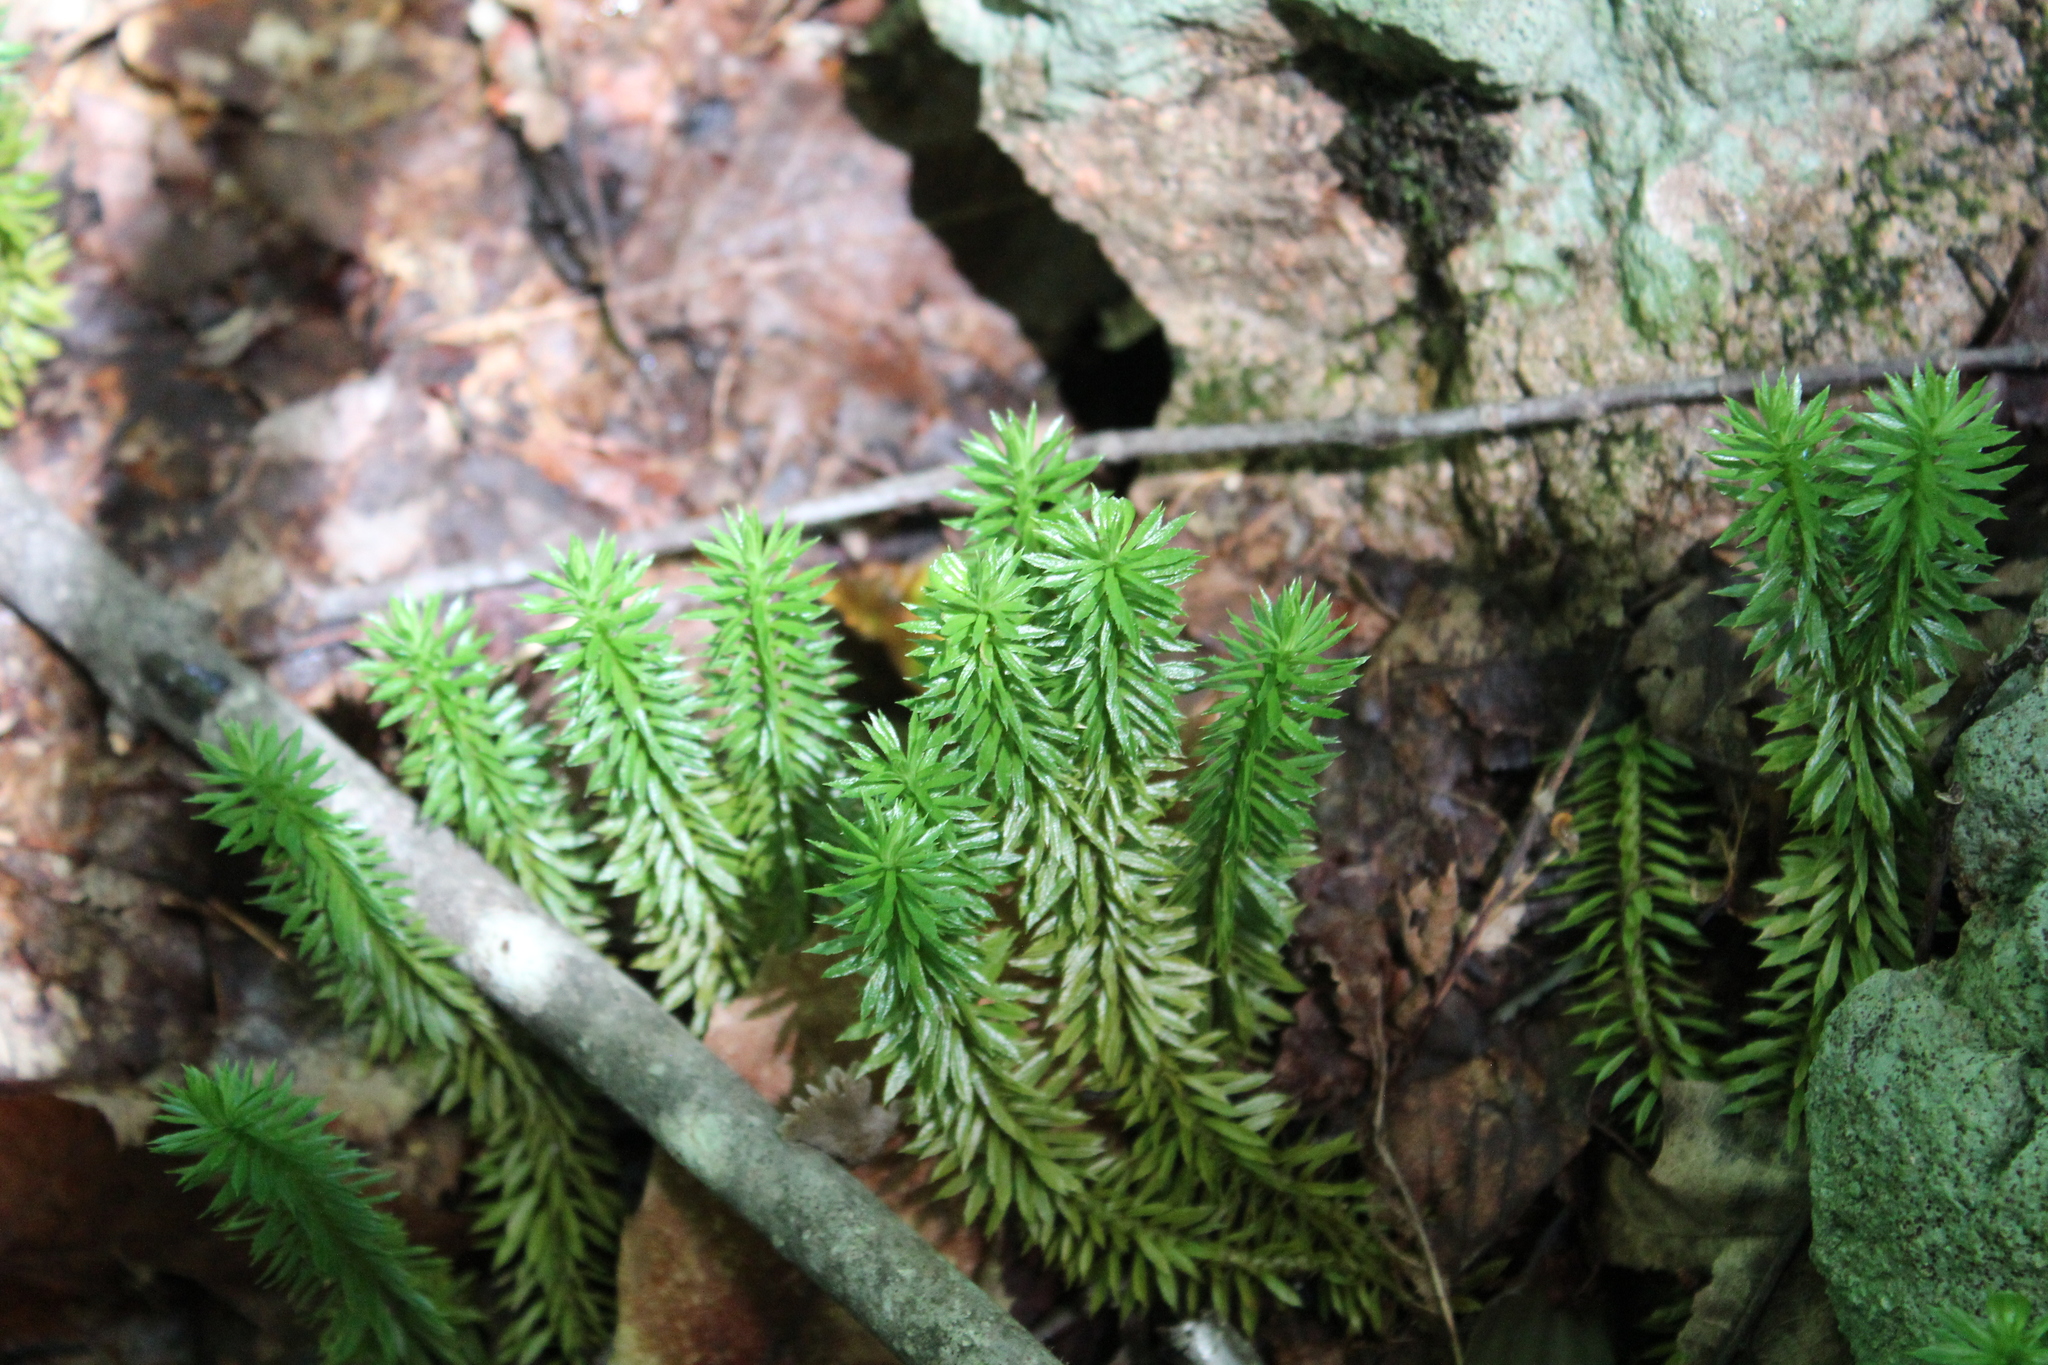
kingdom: Plantae
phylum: Tracheophyta
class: Lycopodiopsida
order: Lycopodiales
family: Lycopodiaceae
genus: Huperzia
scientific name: Huperzia lucidula
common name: Shining clubmoss
